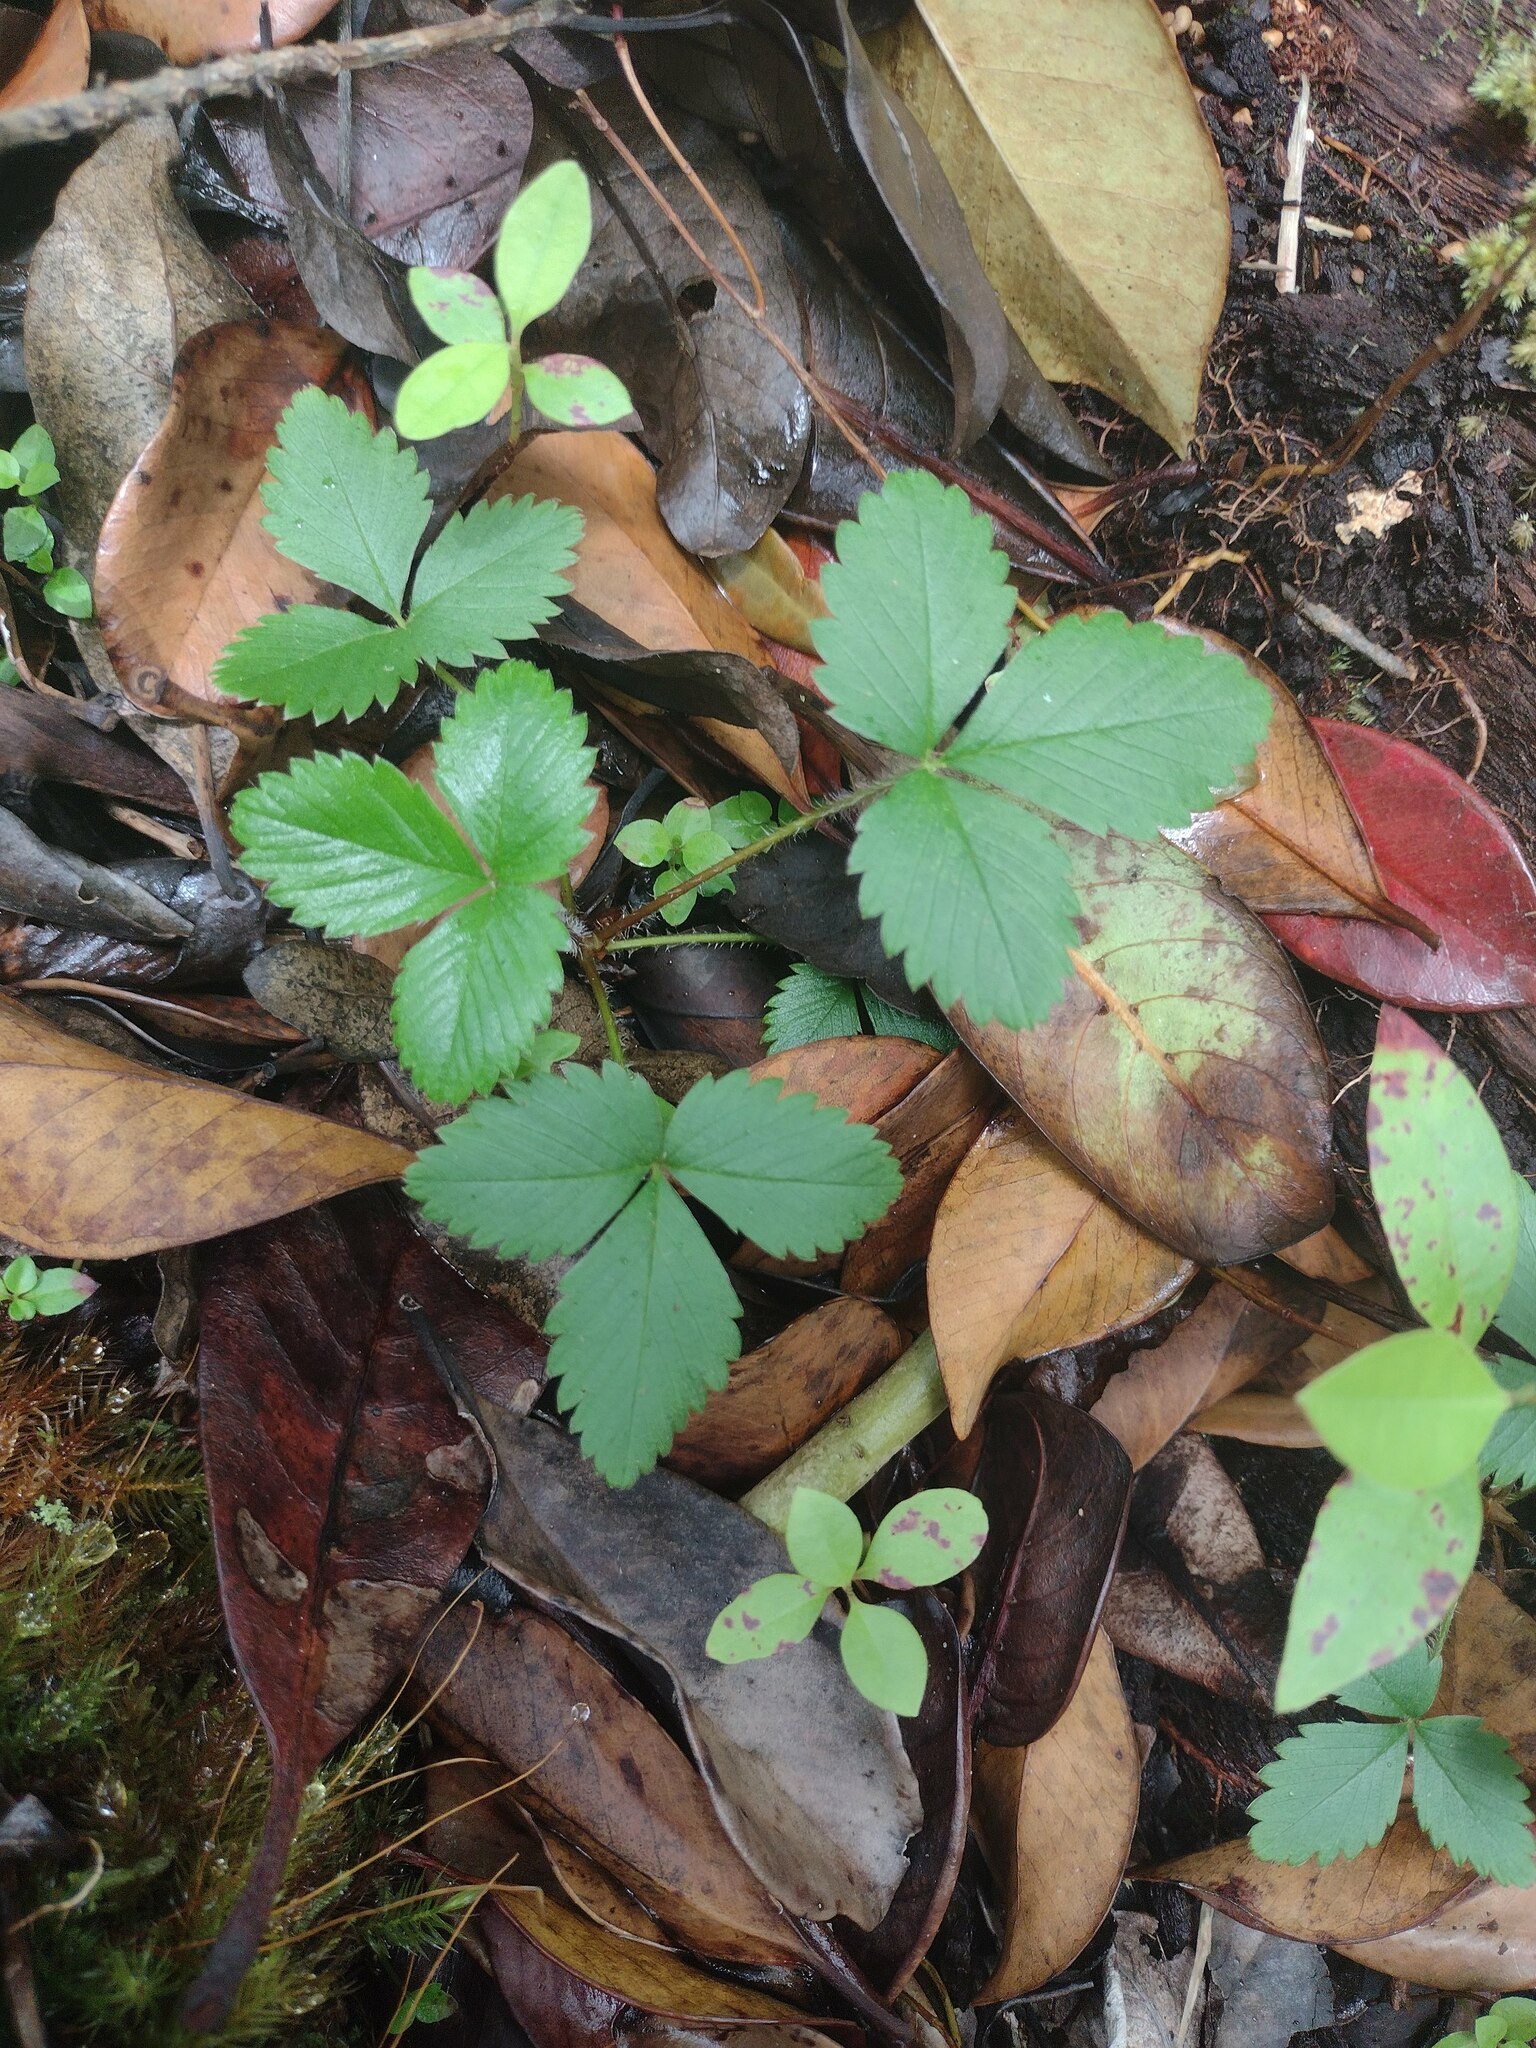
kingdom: Plantae
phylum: Tracheophyta
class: Magnoliopsida
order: Rosales
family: Rosaceae
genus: Fragaria
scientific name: Fragaria vesca
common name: Wild strawberry
